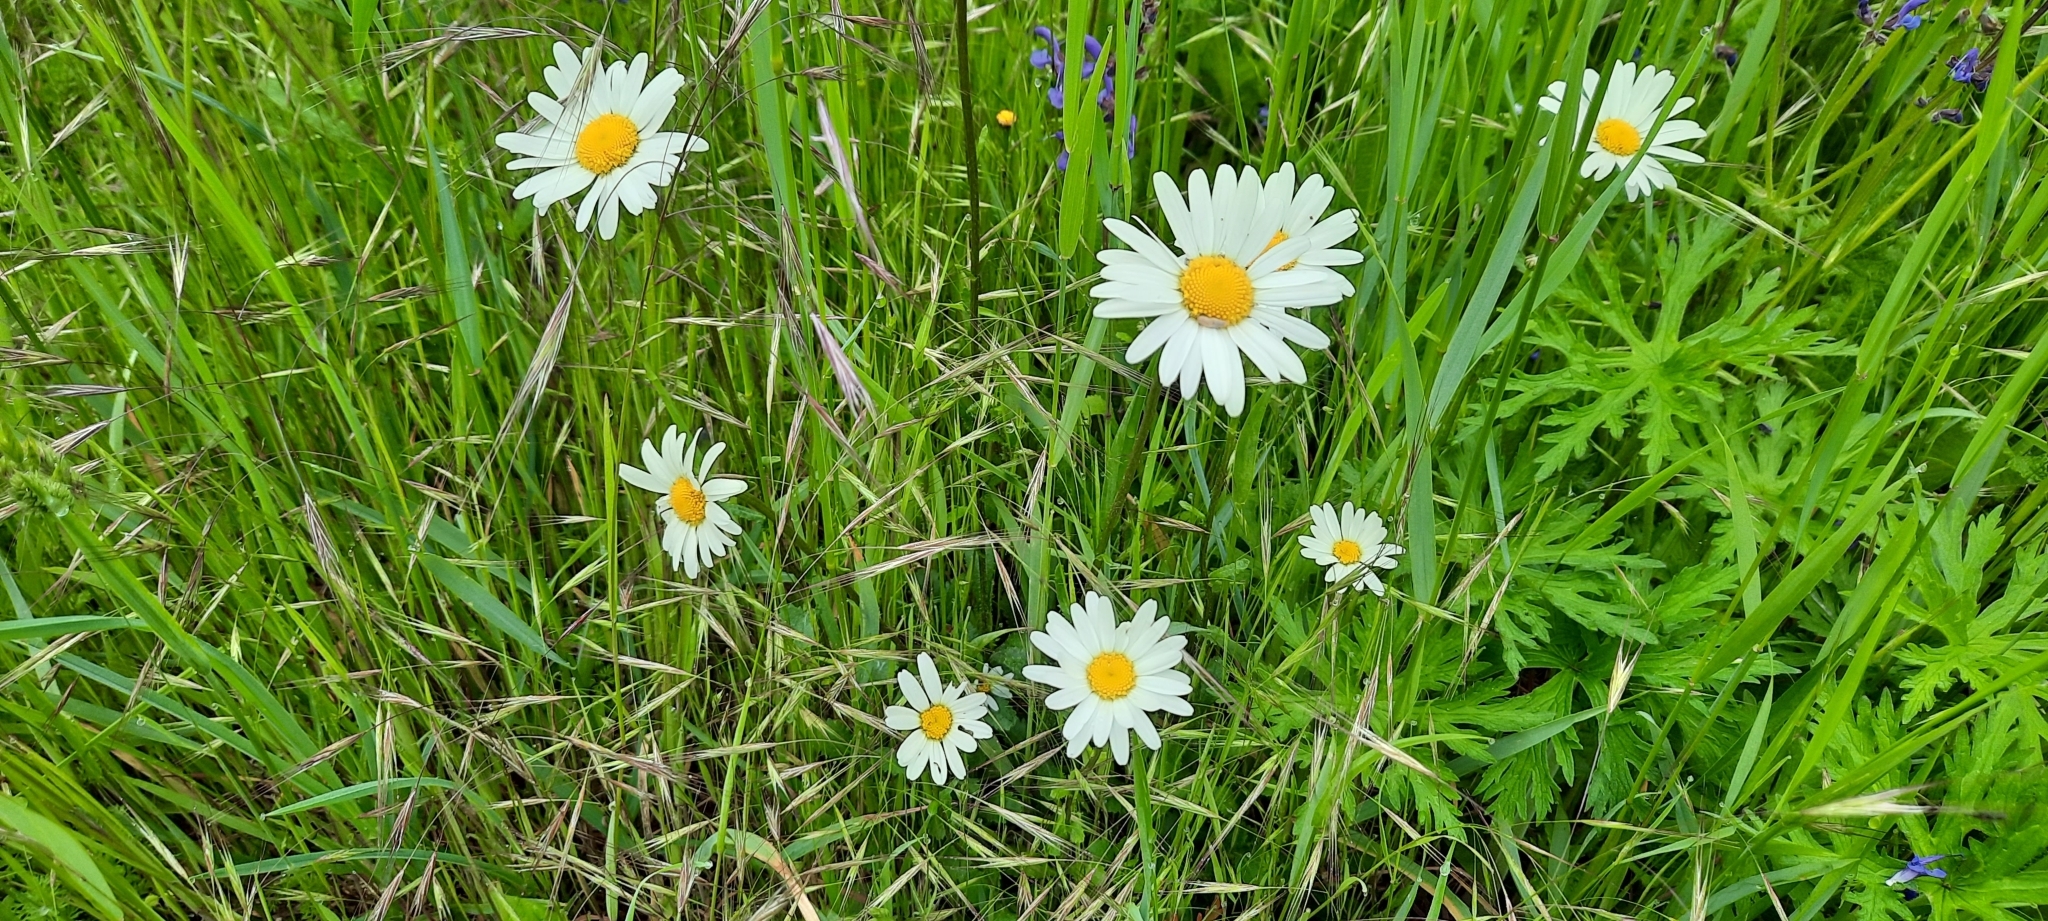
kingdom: Plantae
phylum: Tracheophyta
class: Magnoliopsida
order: Asterales
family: Asteraceae
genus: Leucanthemum
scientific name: Leucanthemum vulgare
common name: Oxeye daisy
